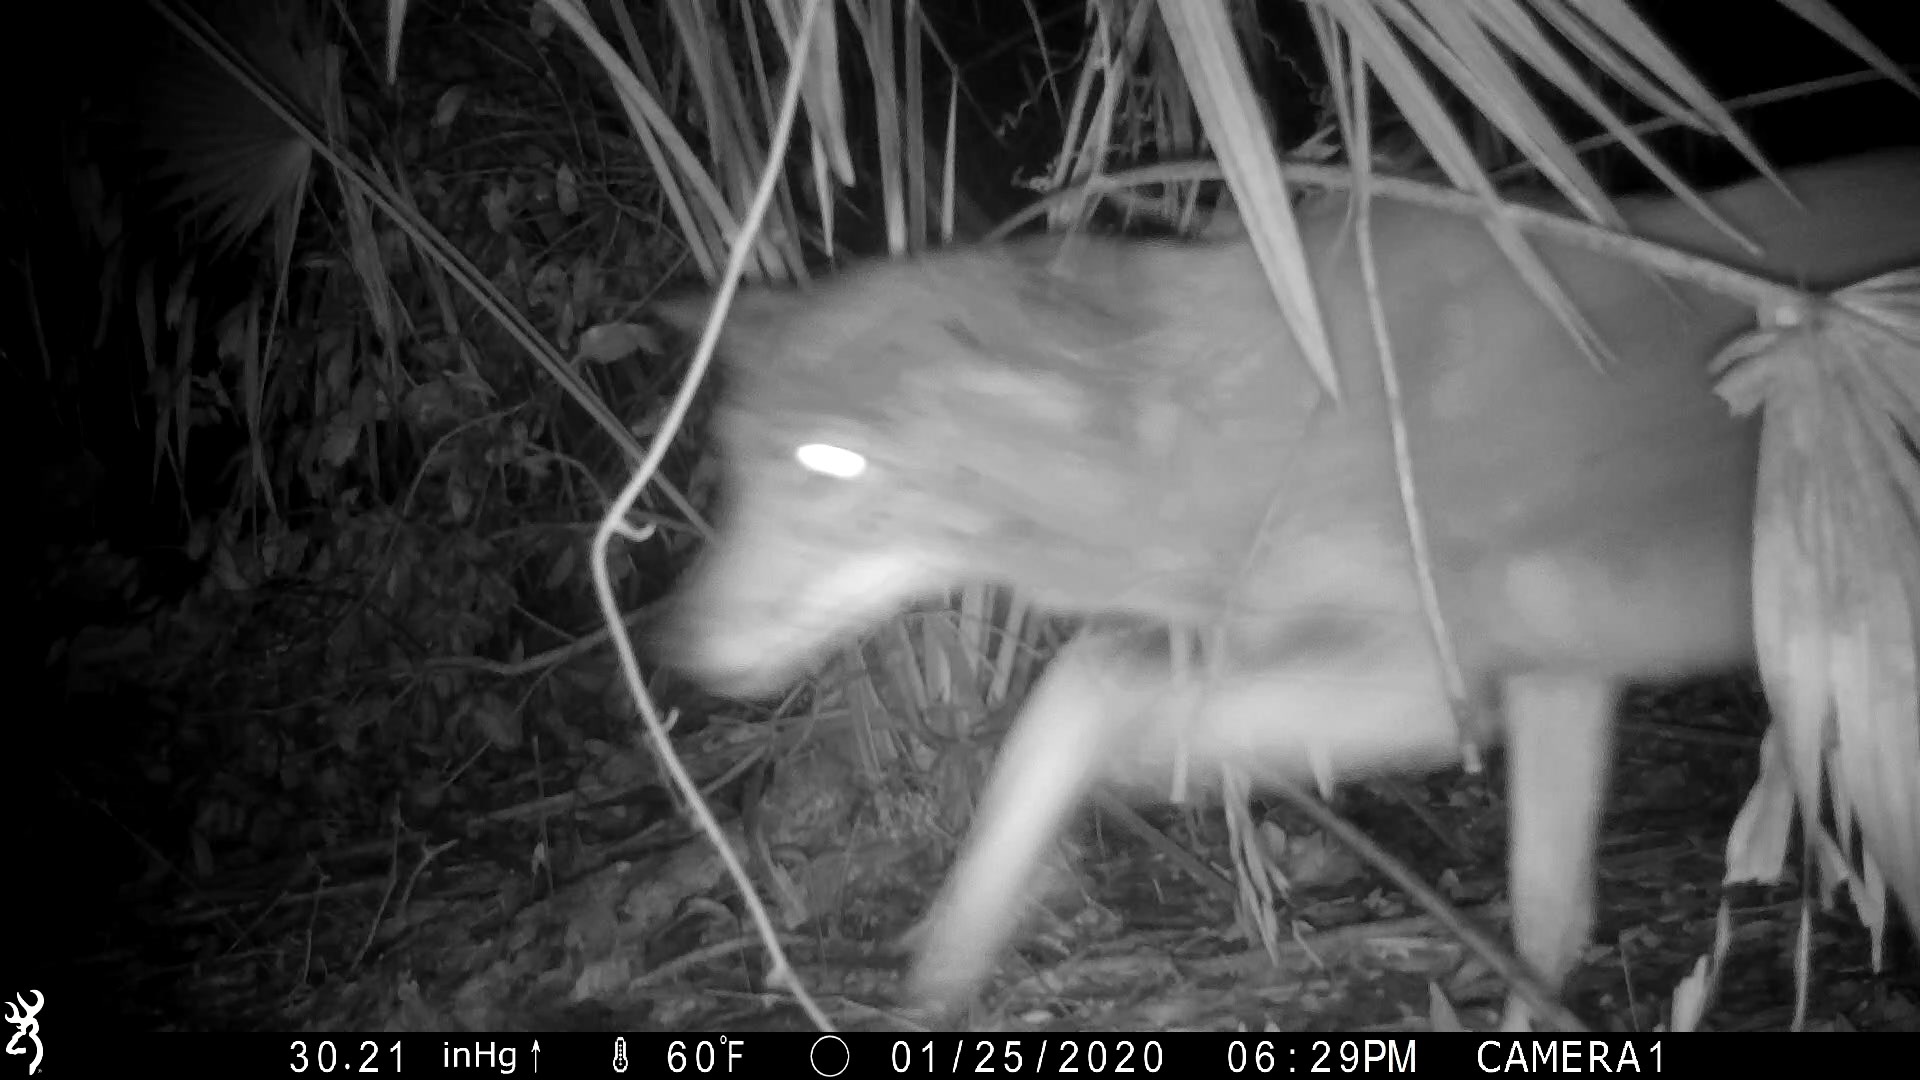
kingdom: Animalia
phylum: Chordata
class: Mammalia
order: Carnivora
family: Canidae
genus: Canis
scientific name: Canis latrans
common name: Coyote
